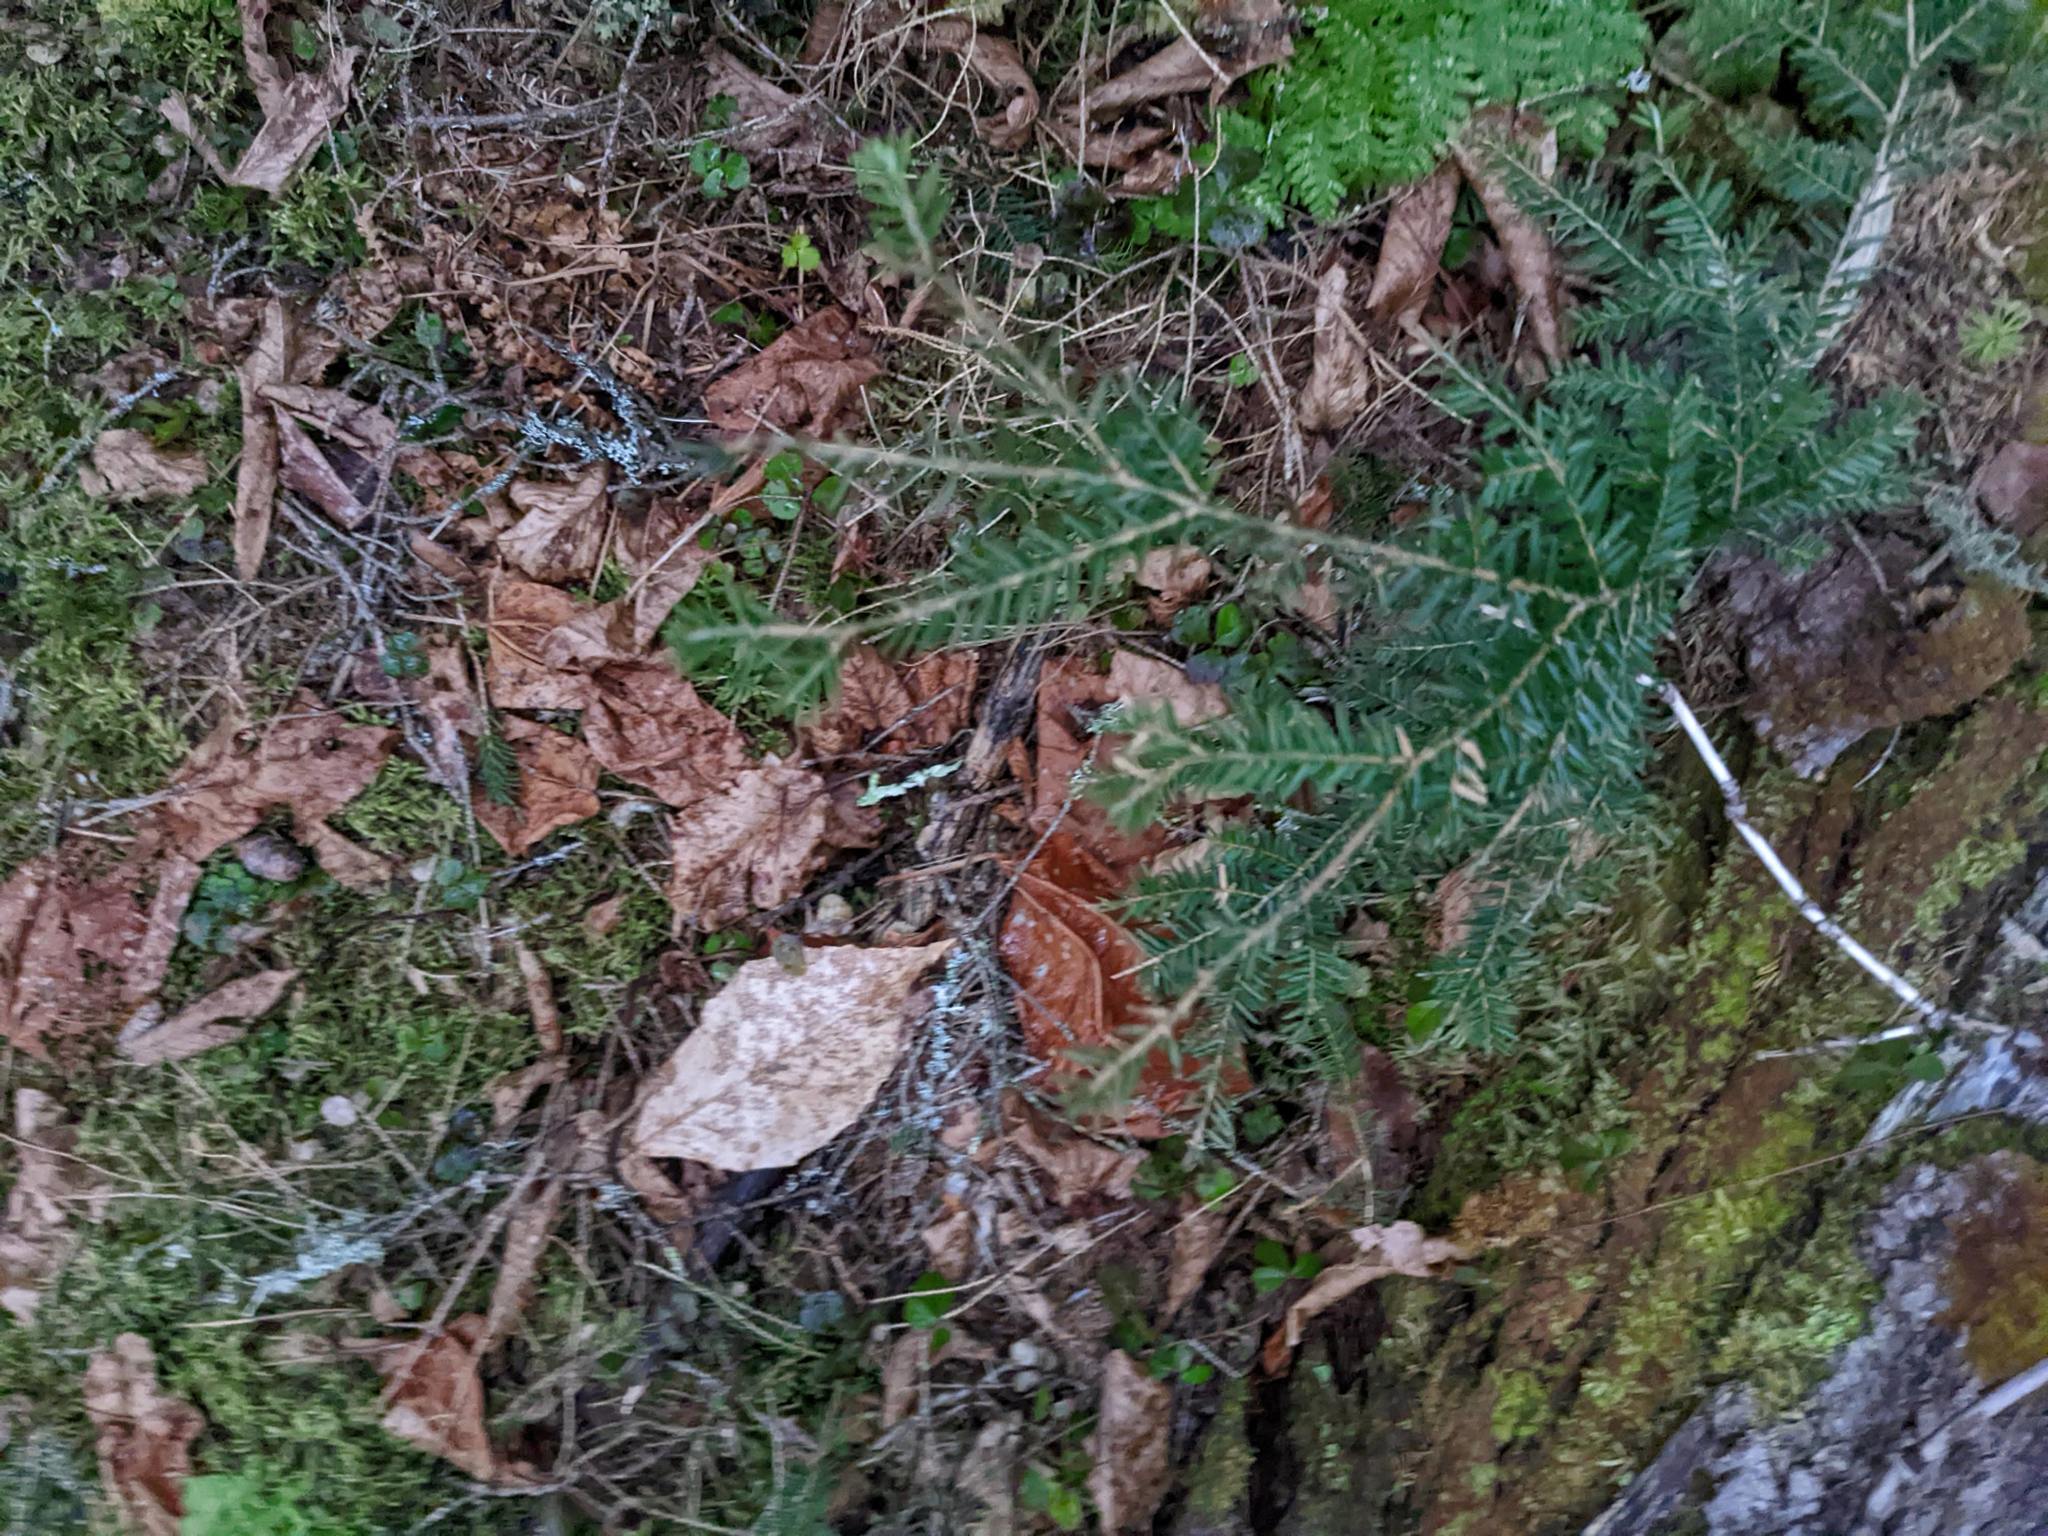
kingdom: Plantae
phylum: Tracheophyta
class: Pinopsida
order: Pinales
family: Pinaceae
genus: Tsuga
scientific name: Tsuga canadensis
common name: Eastern hemlock
